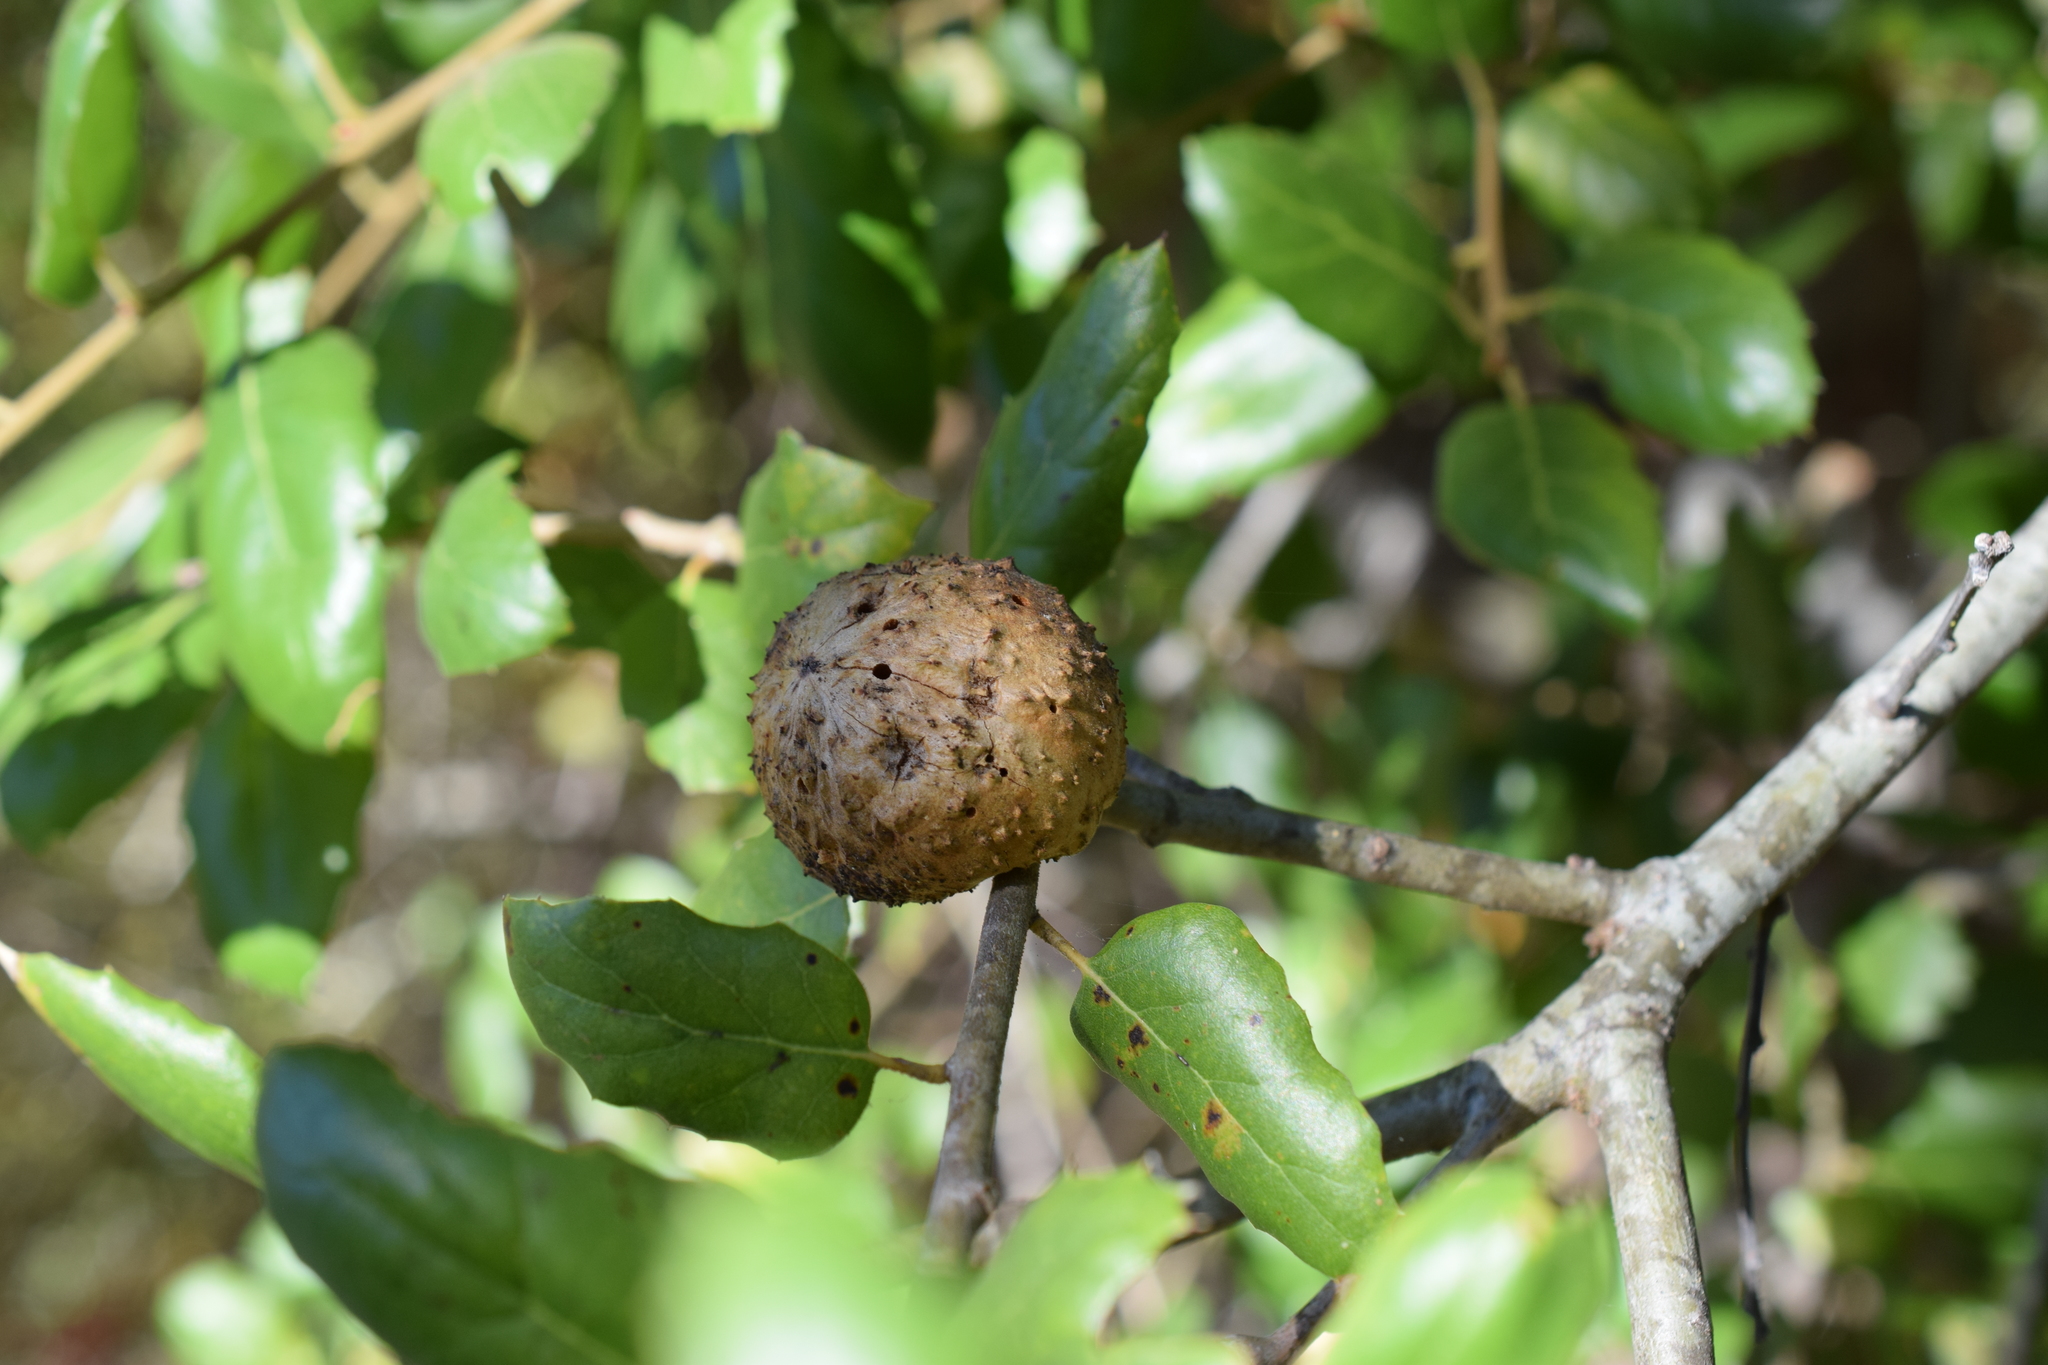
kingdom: Animalia
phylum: Arthropoda
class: Insecta
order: Hymenoptera
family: Cynipidae
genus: Amphibolips
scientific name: Amphibolips quercuspomiformis
